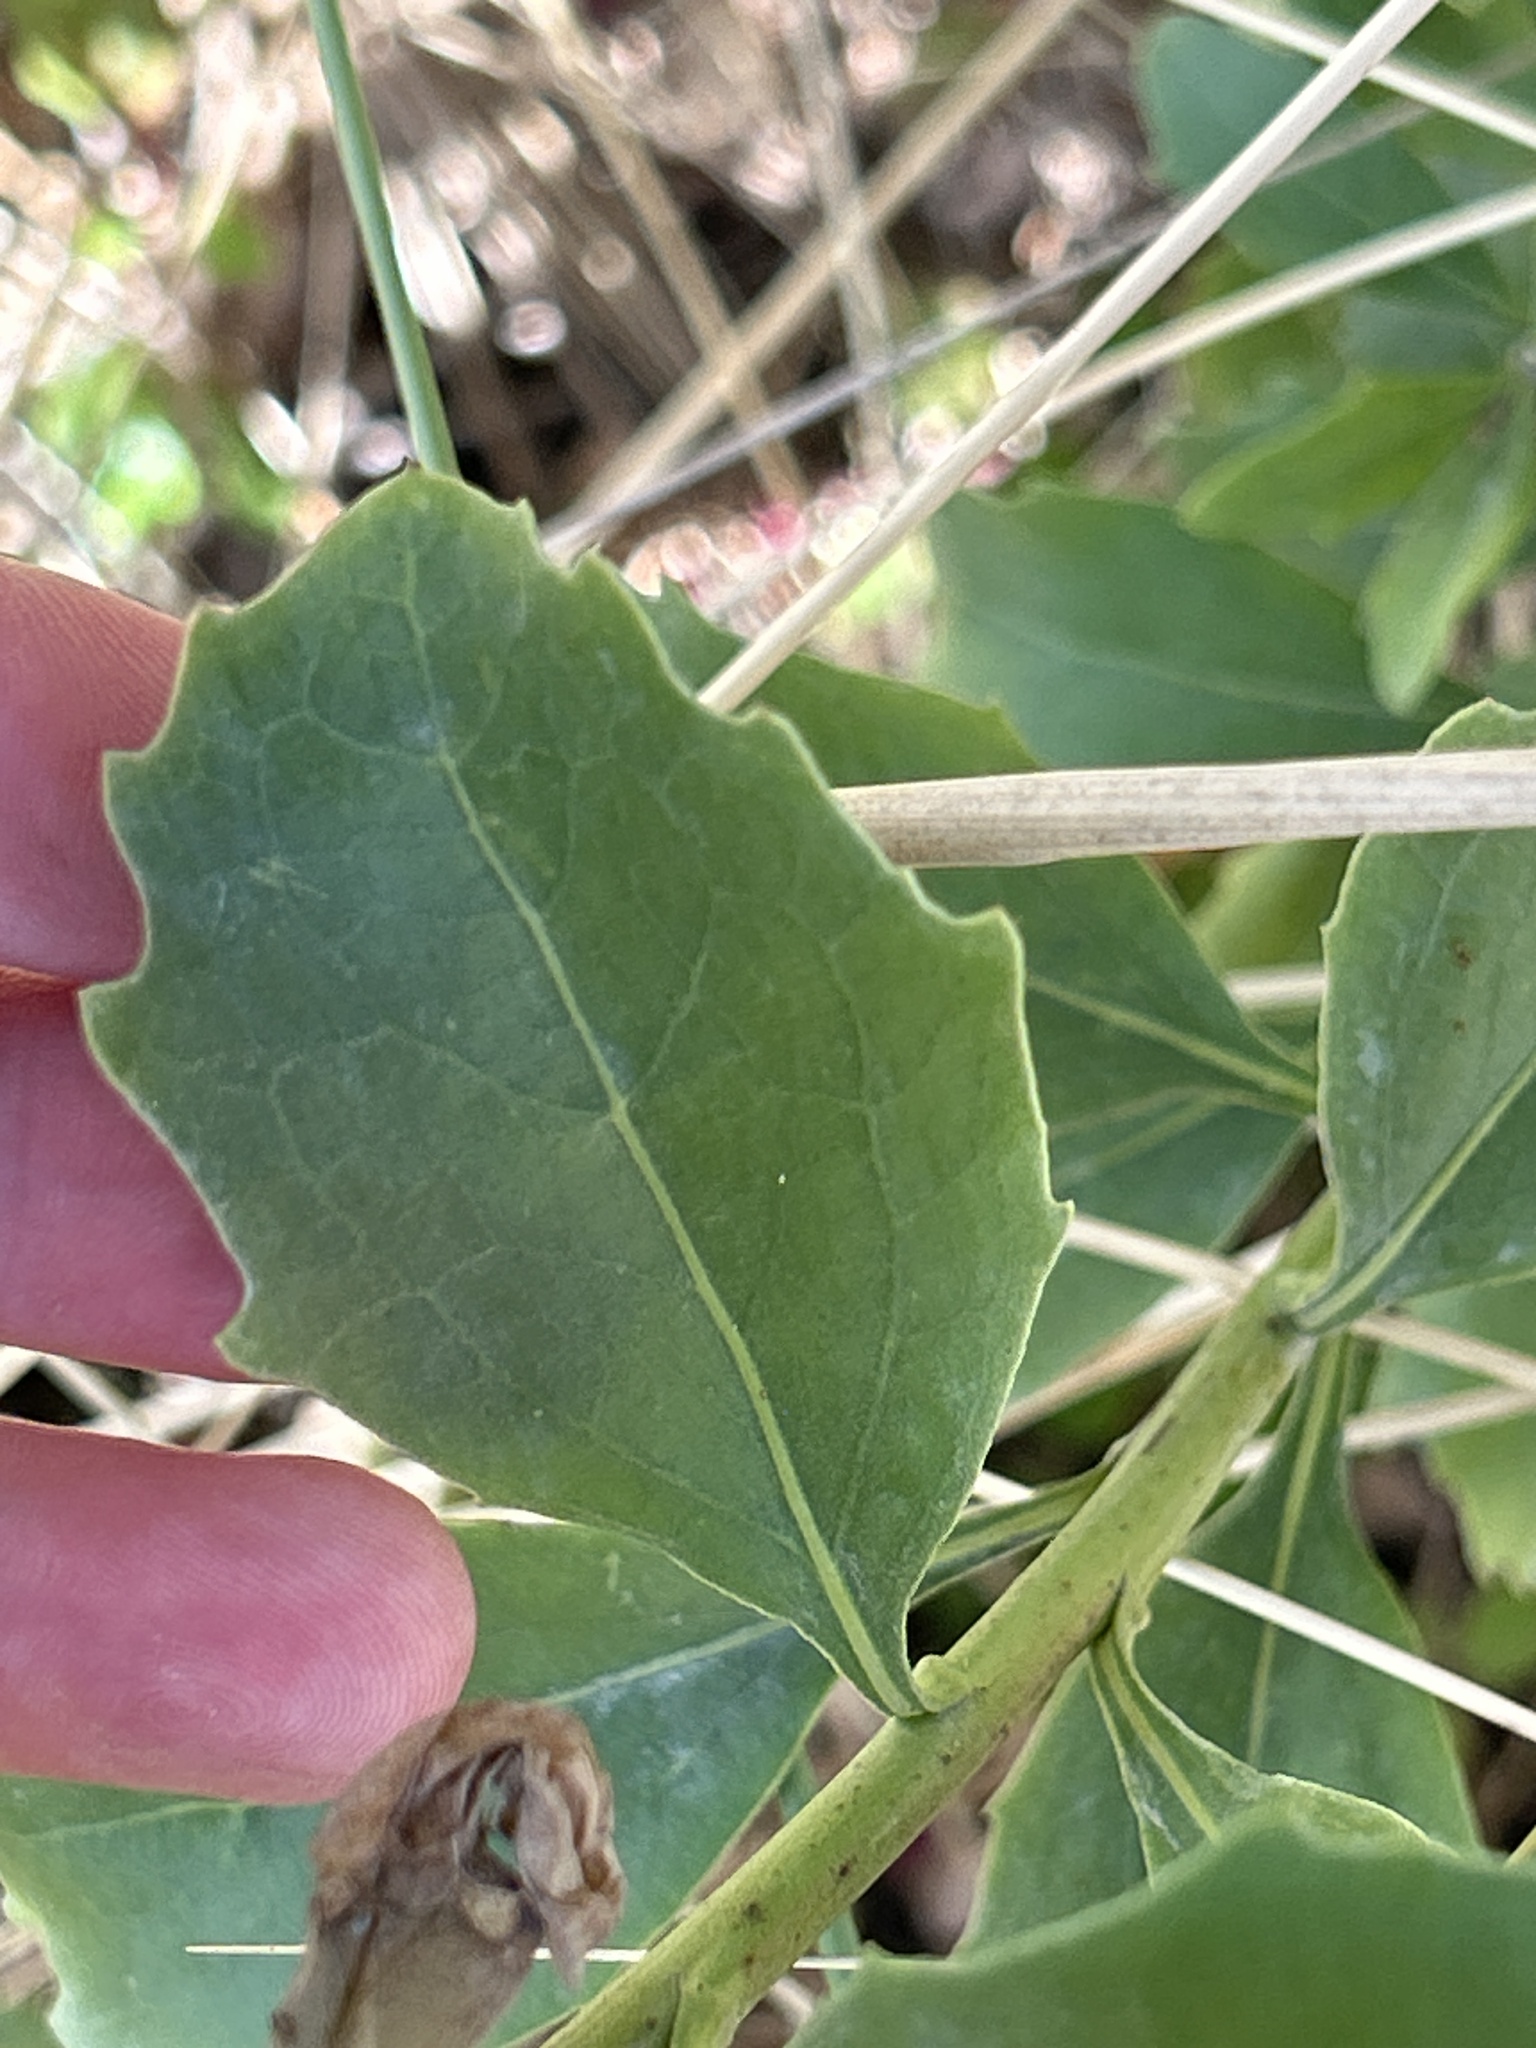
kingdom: Plantae
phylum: Tracheophyta
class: Magnoliopsida
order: Asterales
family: Asteraceae
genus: Osteospermum
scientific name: Osteospermum moniliferum
